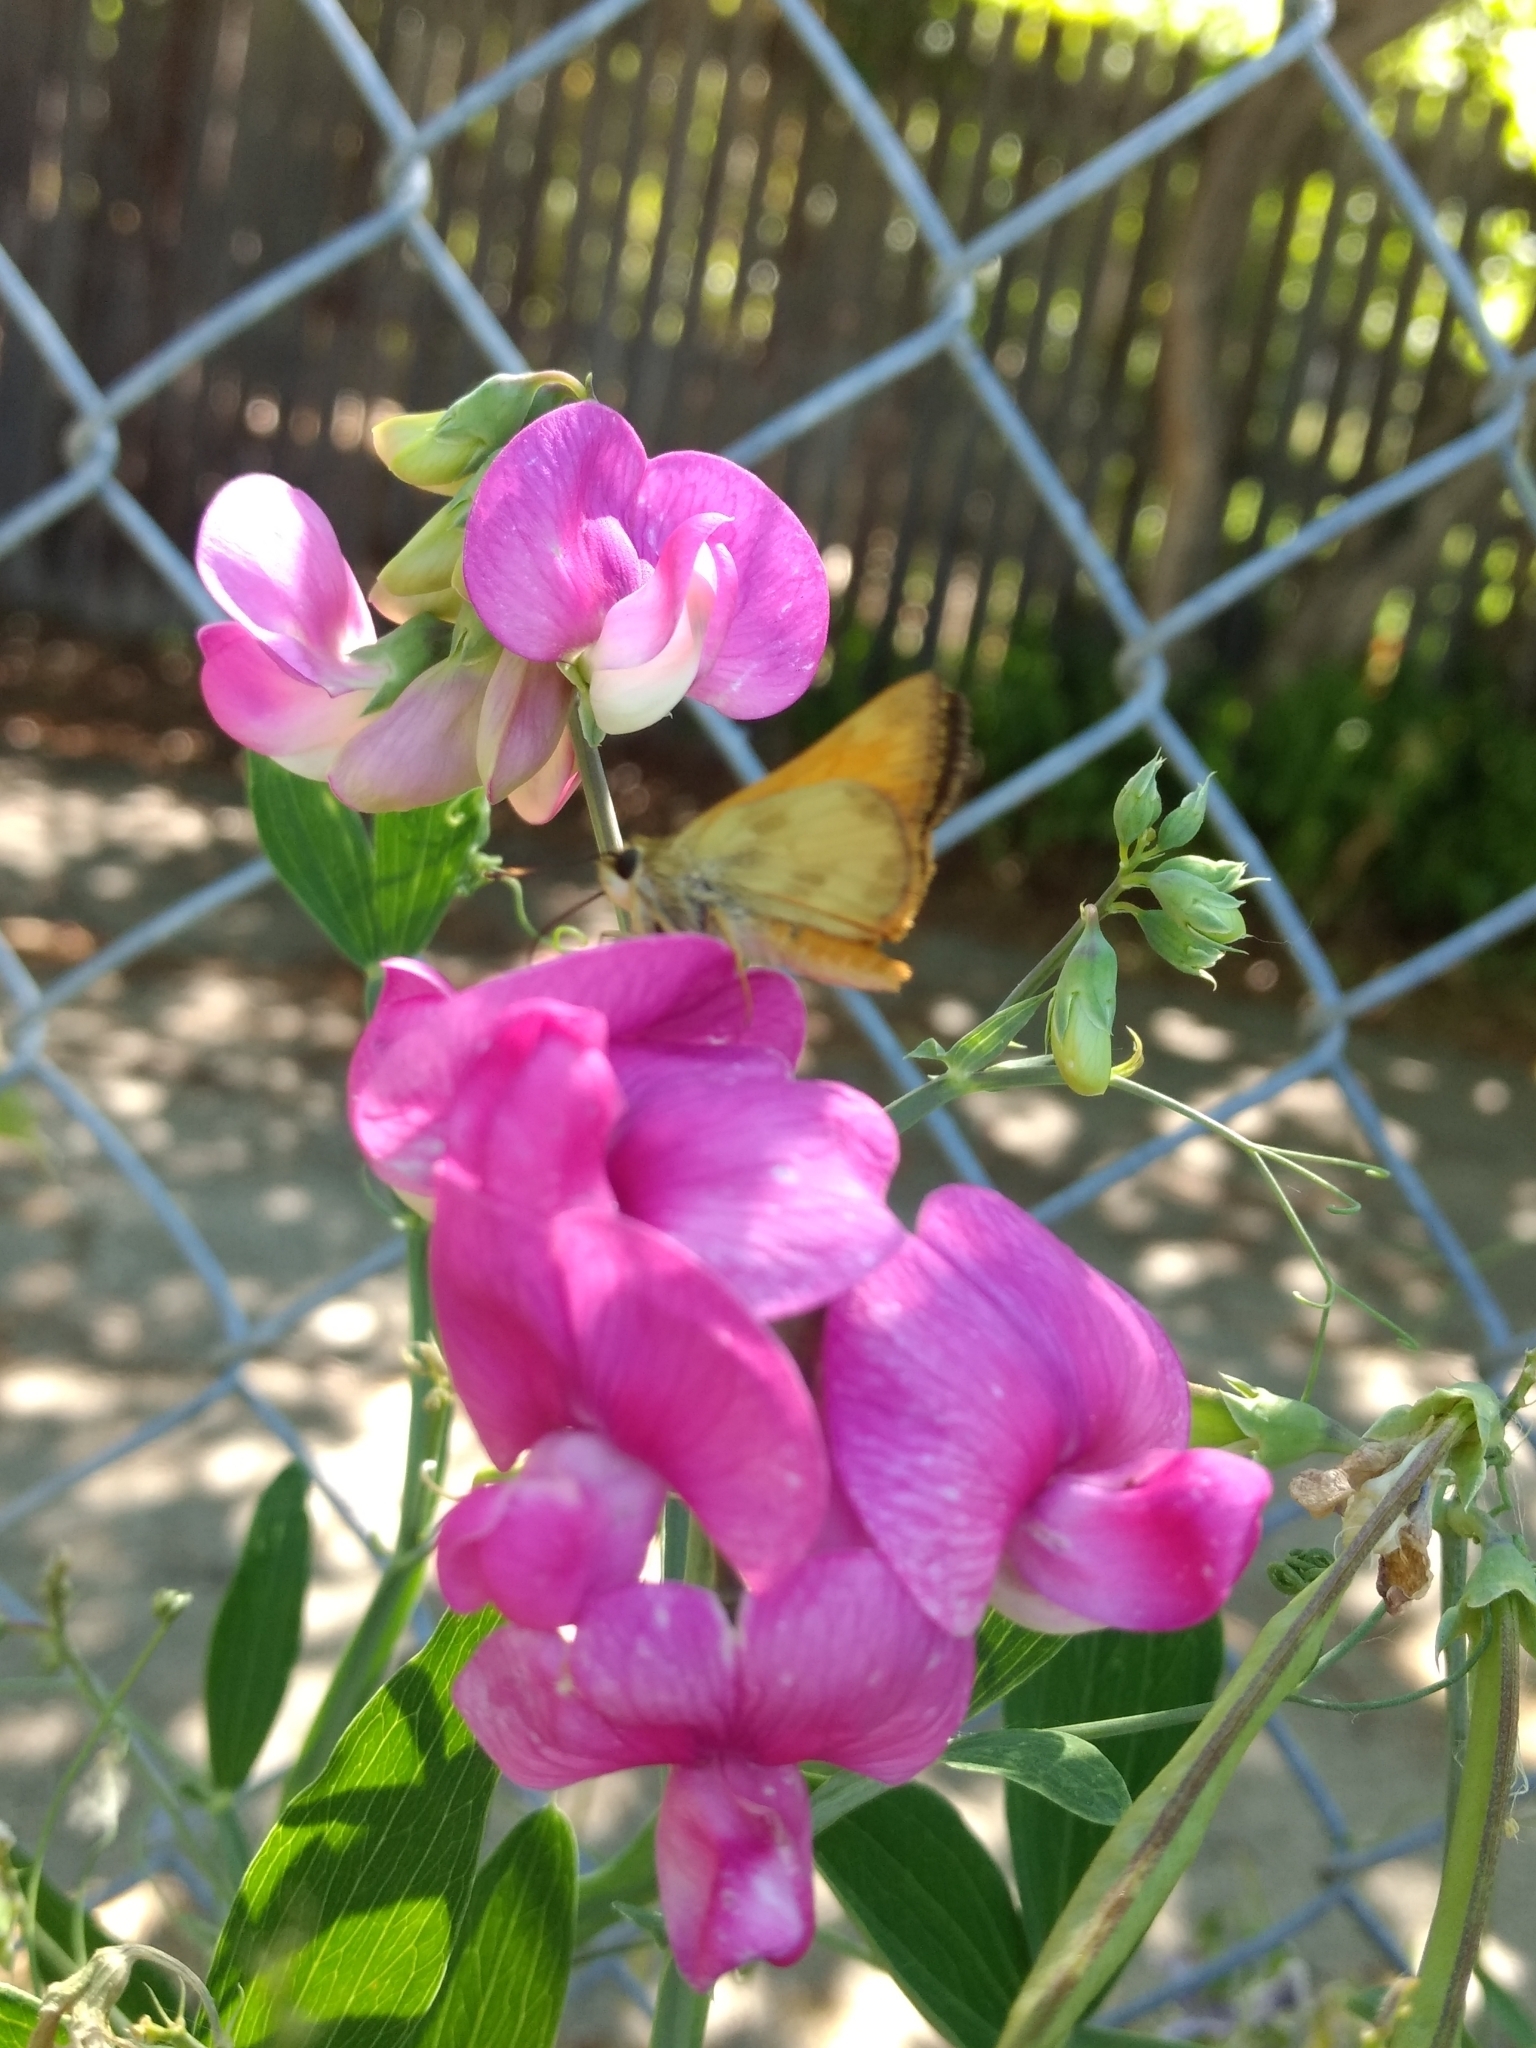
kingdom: Animalia
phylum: Arthropoda
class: Insecta
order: Lepidoptera
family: Hesperiidae
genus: Lon
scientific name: Lon taxiles
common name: Taxiles skipper
